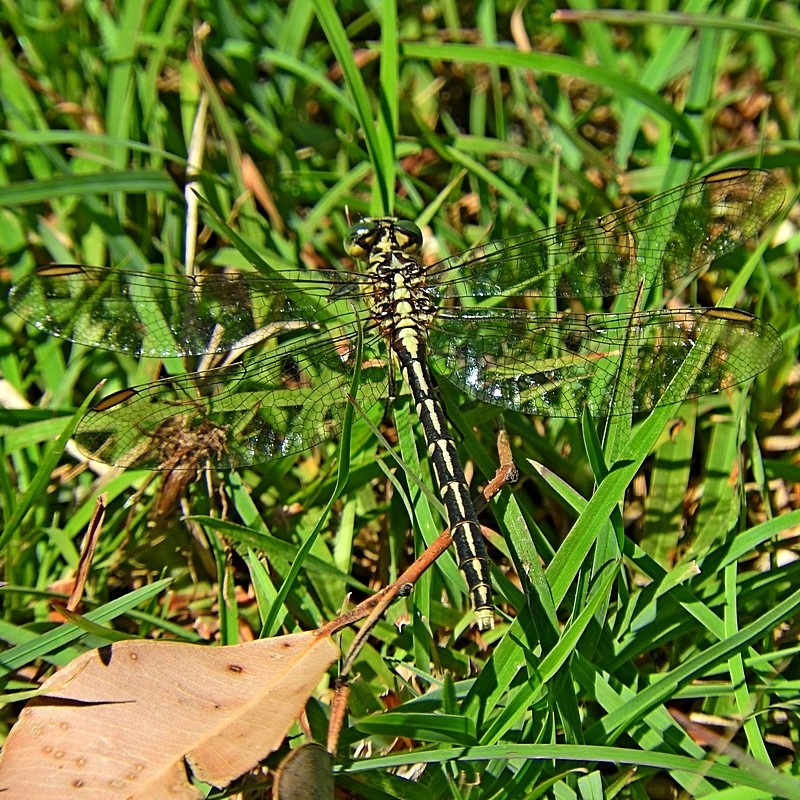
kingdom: Animalia
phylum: Arthropoda
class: Insecta
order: Odonata
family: Gomphidae
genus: Austrogomphus
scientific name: Austrogomphus guerini
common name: Yellow-striped hunter
